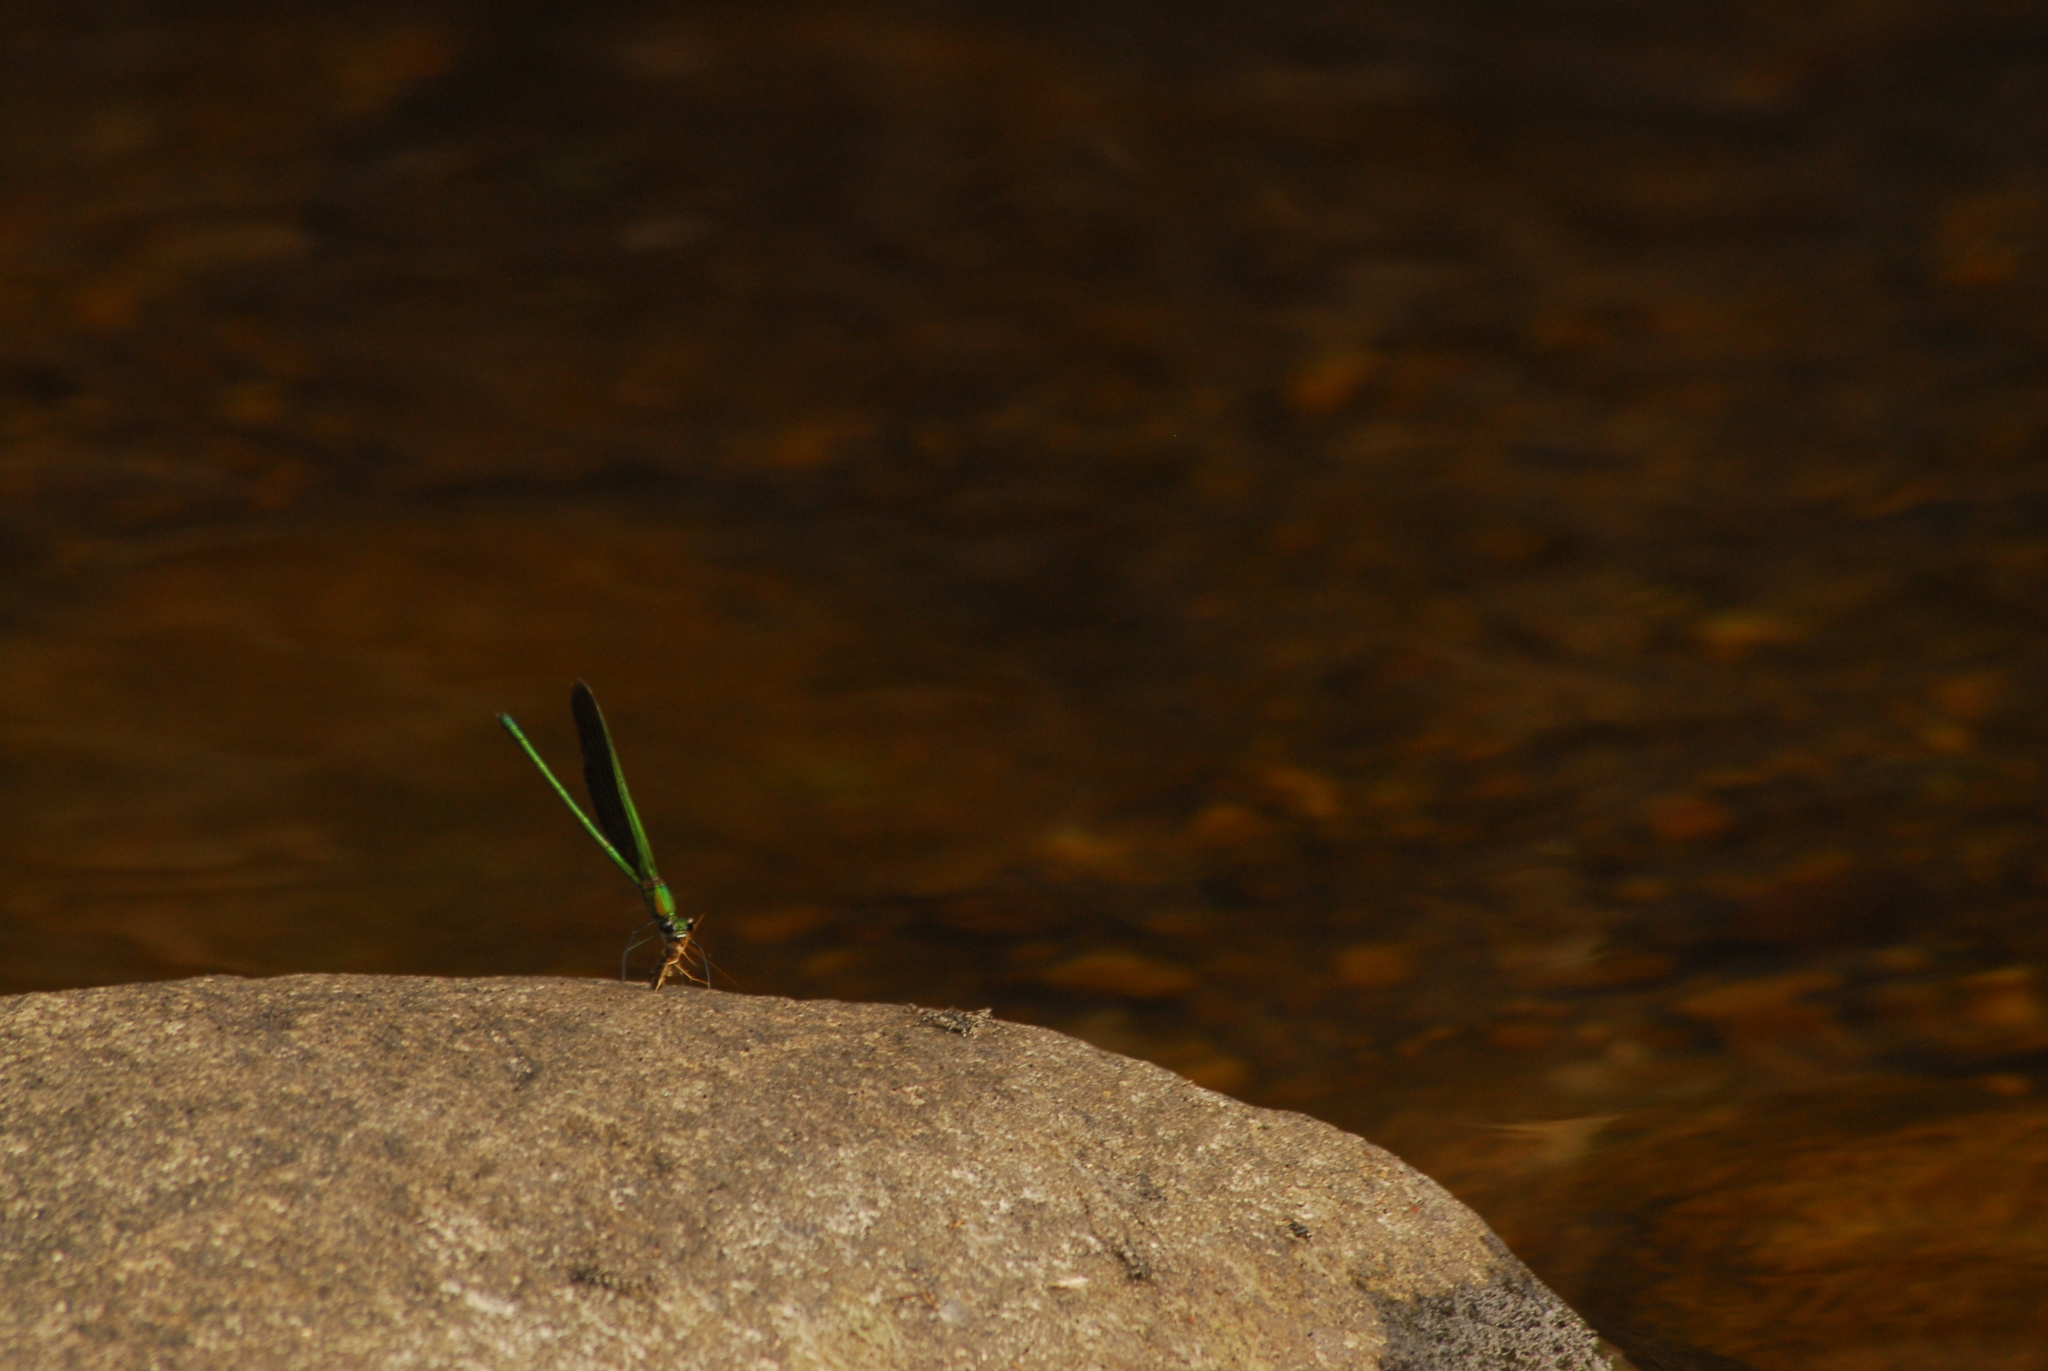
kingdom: Animalia
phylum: Arthropoda
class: Insecta
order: Odonata
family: Calopterygidae
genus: Neurobasis
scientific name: Neurobasis chinensis
